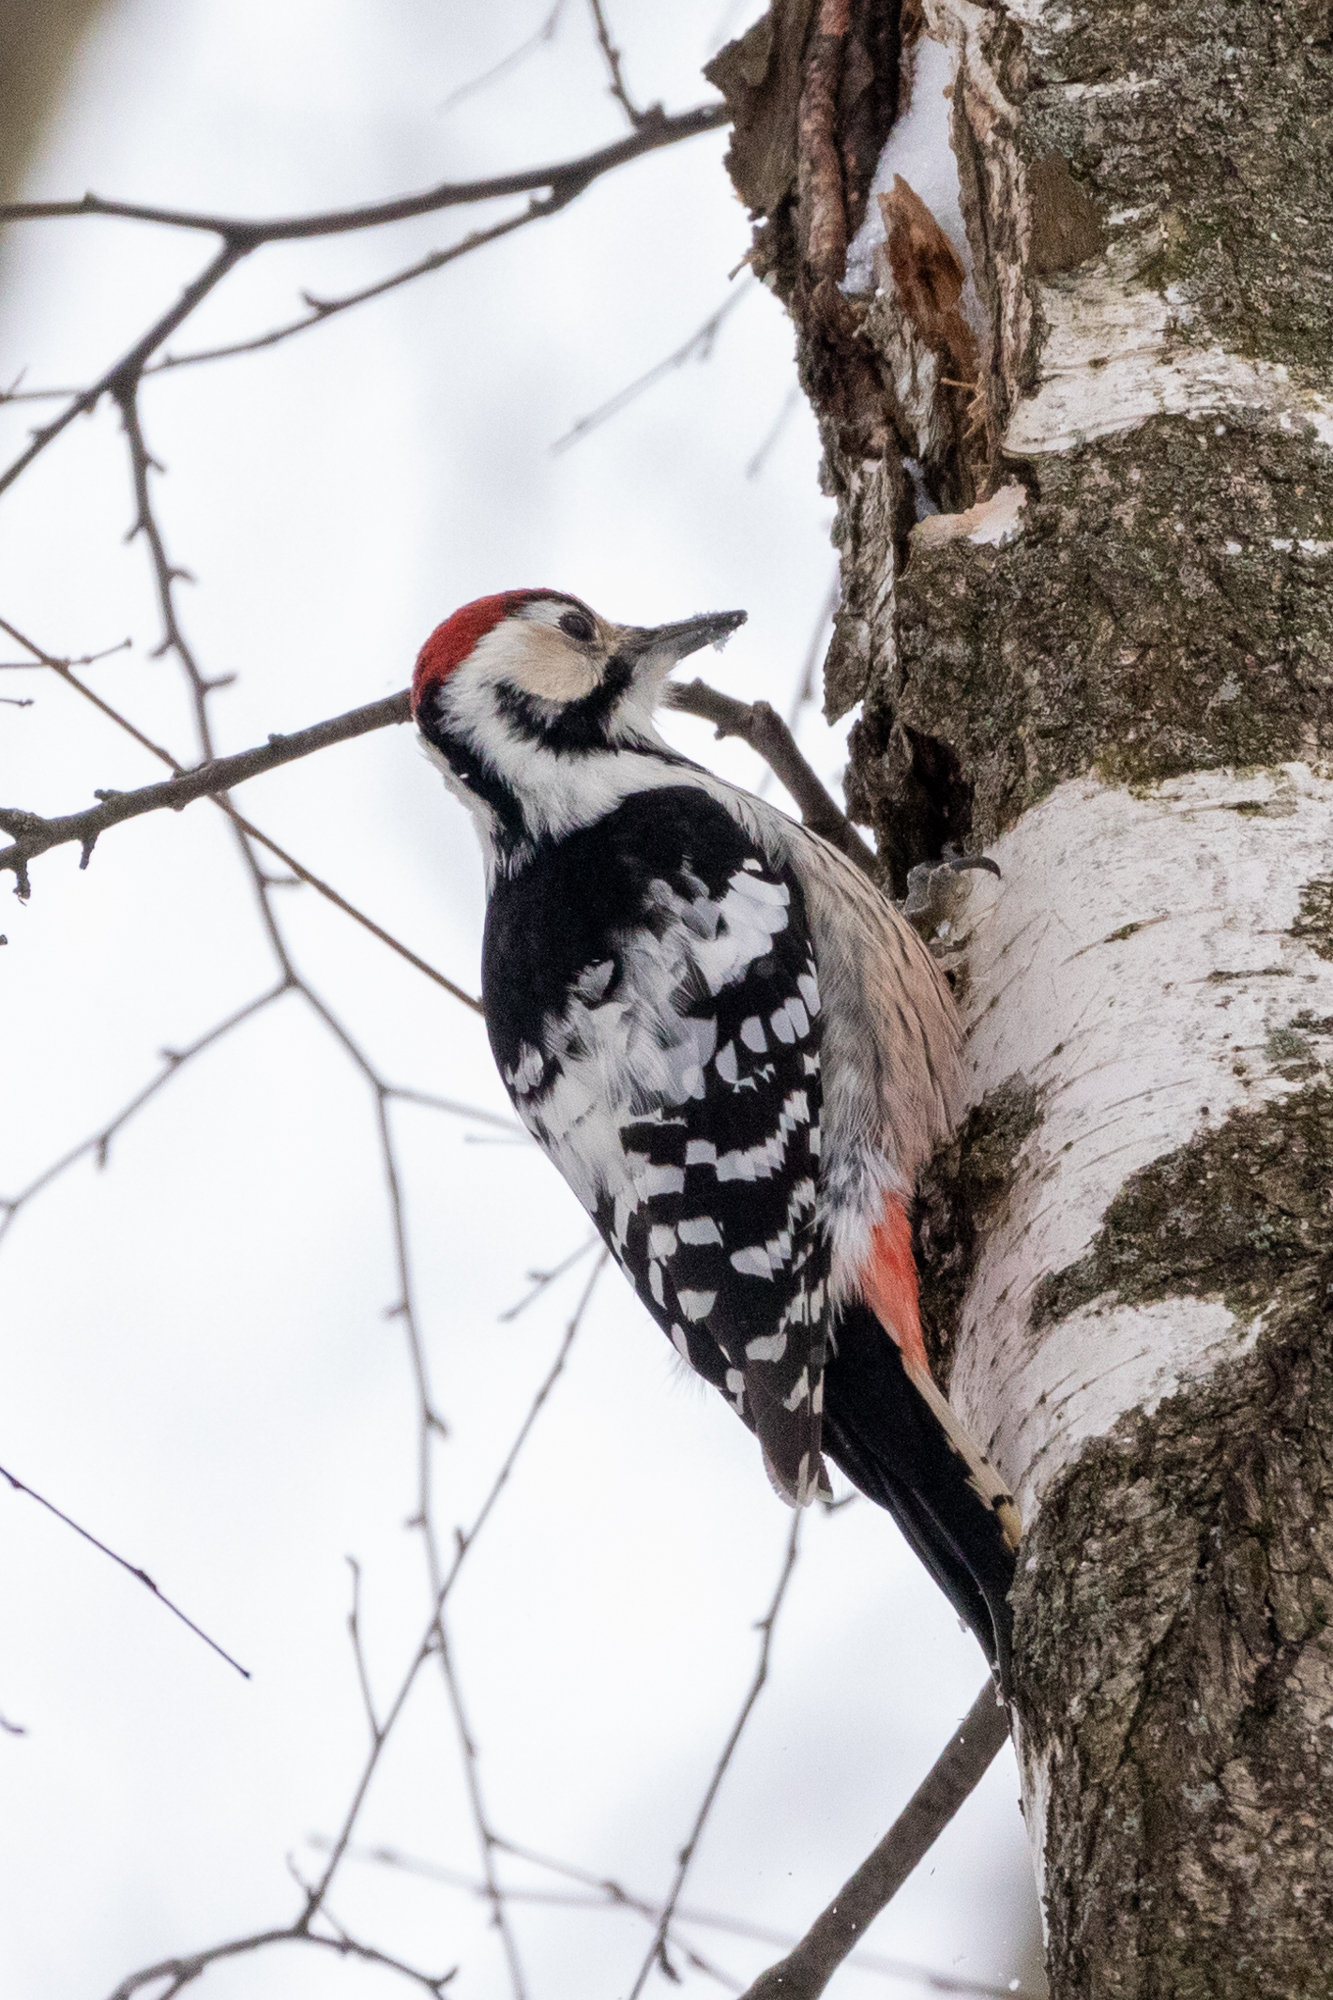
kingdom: Animalia
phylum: Chordata
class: Aves
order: Piciformes
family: Picidae
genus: Dendrocopos
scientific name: Dendrocopos leucotos
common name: White-backed woodpecker
